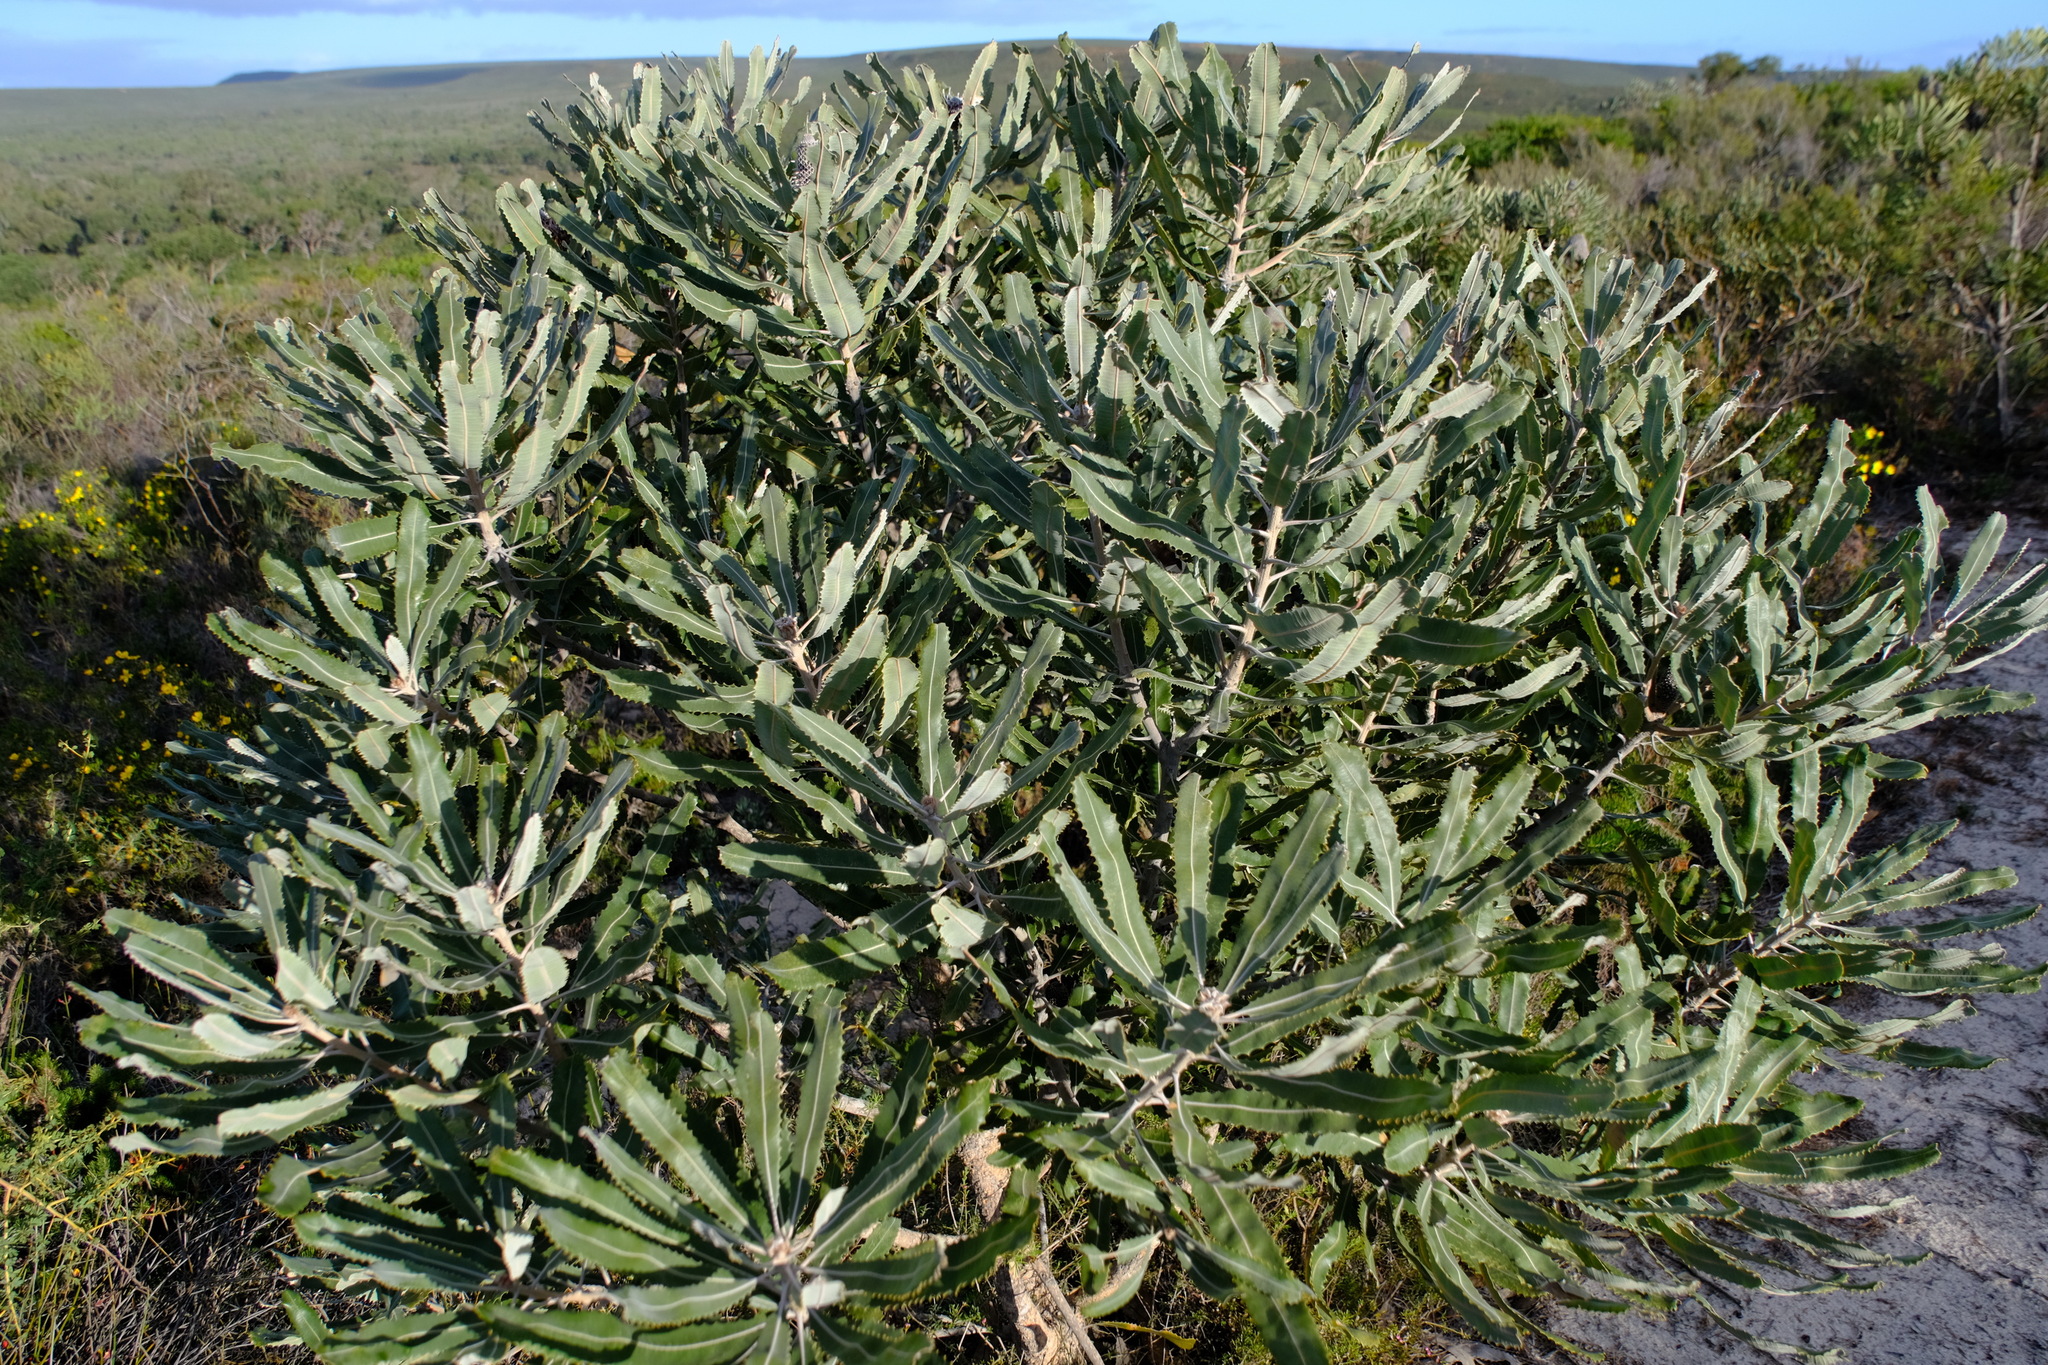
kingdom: Plantae
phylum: Tracheophyta
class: Magnoliopsida
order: Proteales
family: Proteaceae
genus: Banksia
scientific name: Banksia menziesii
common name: Menzie's banksia
